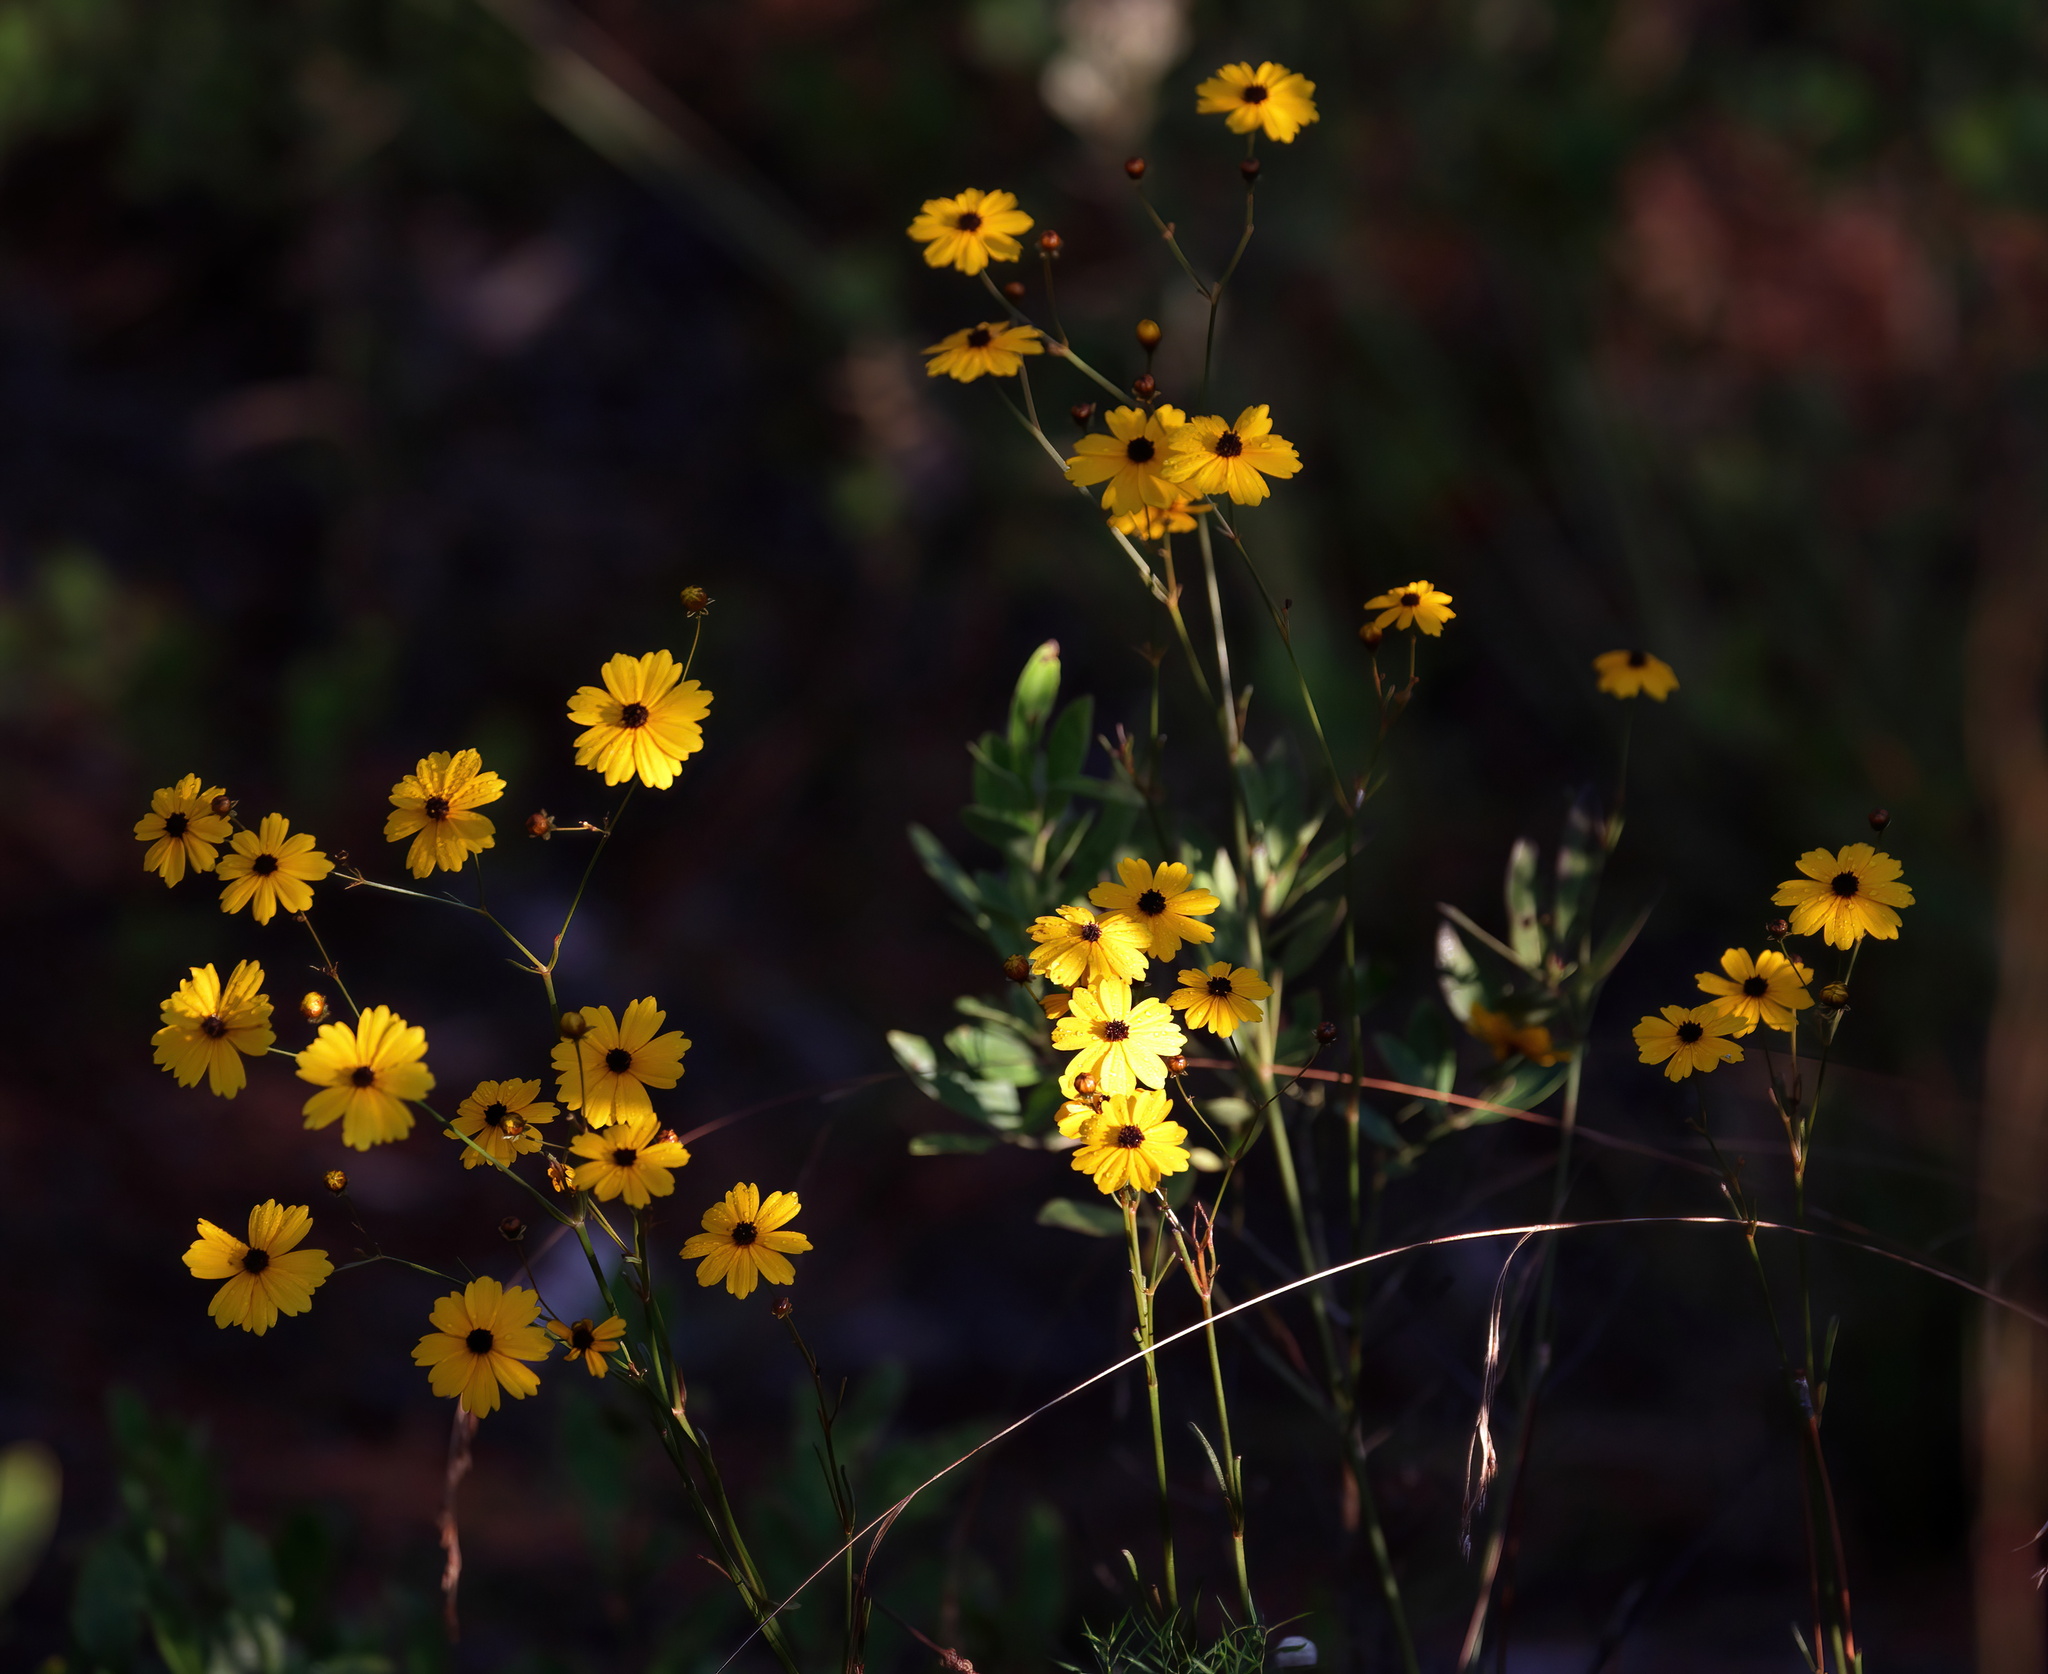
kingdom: Plantae
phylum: Tracheophyta
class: Magnoliopsida
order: Asterales
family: Asteraceae
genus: Coreopsis
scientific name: Coreopsis gladiata
